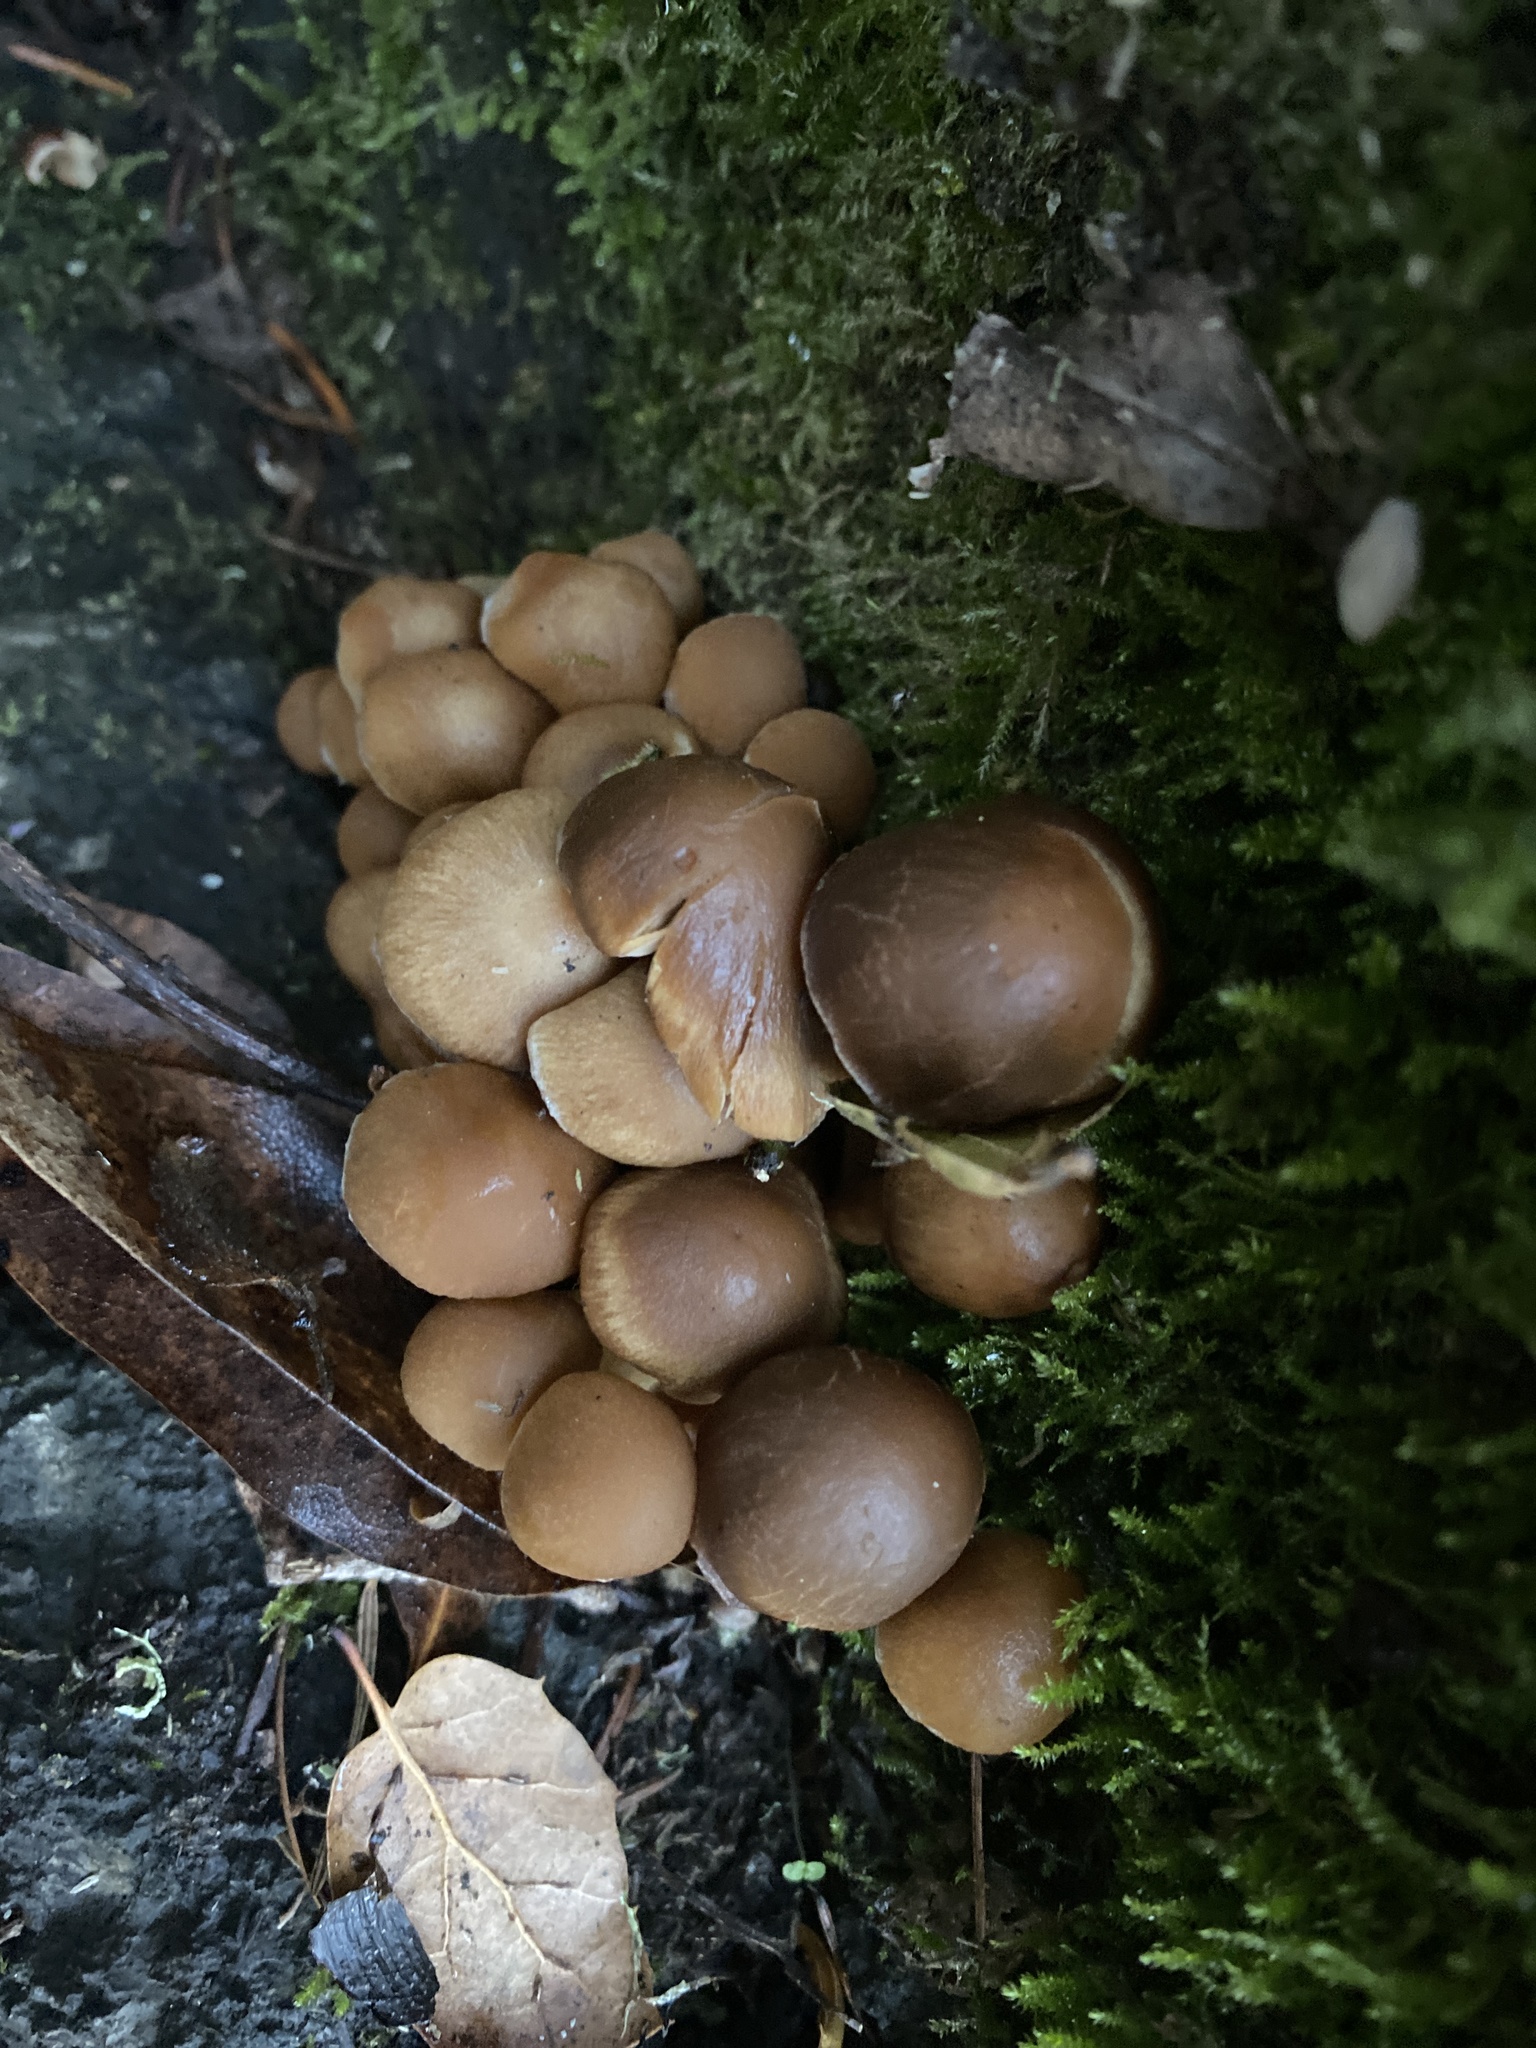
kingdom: Fungi
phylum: Basidiomycota
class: Agaricomycetes
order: Agaricales
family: Psathyrellaceae
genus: Psathyrella
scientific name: Psathyrella piluliformis
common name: Common stump brittlestem
